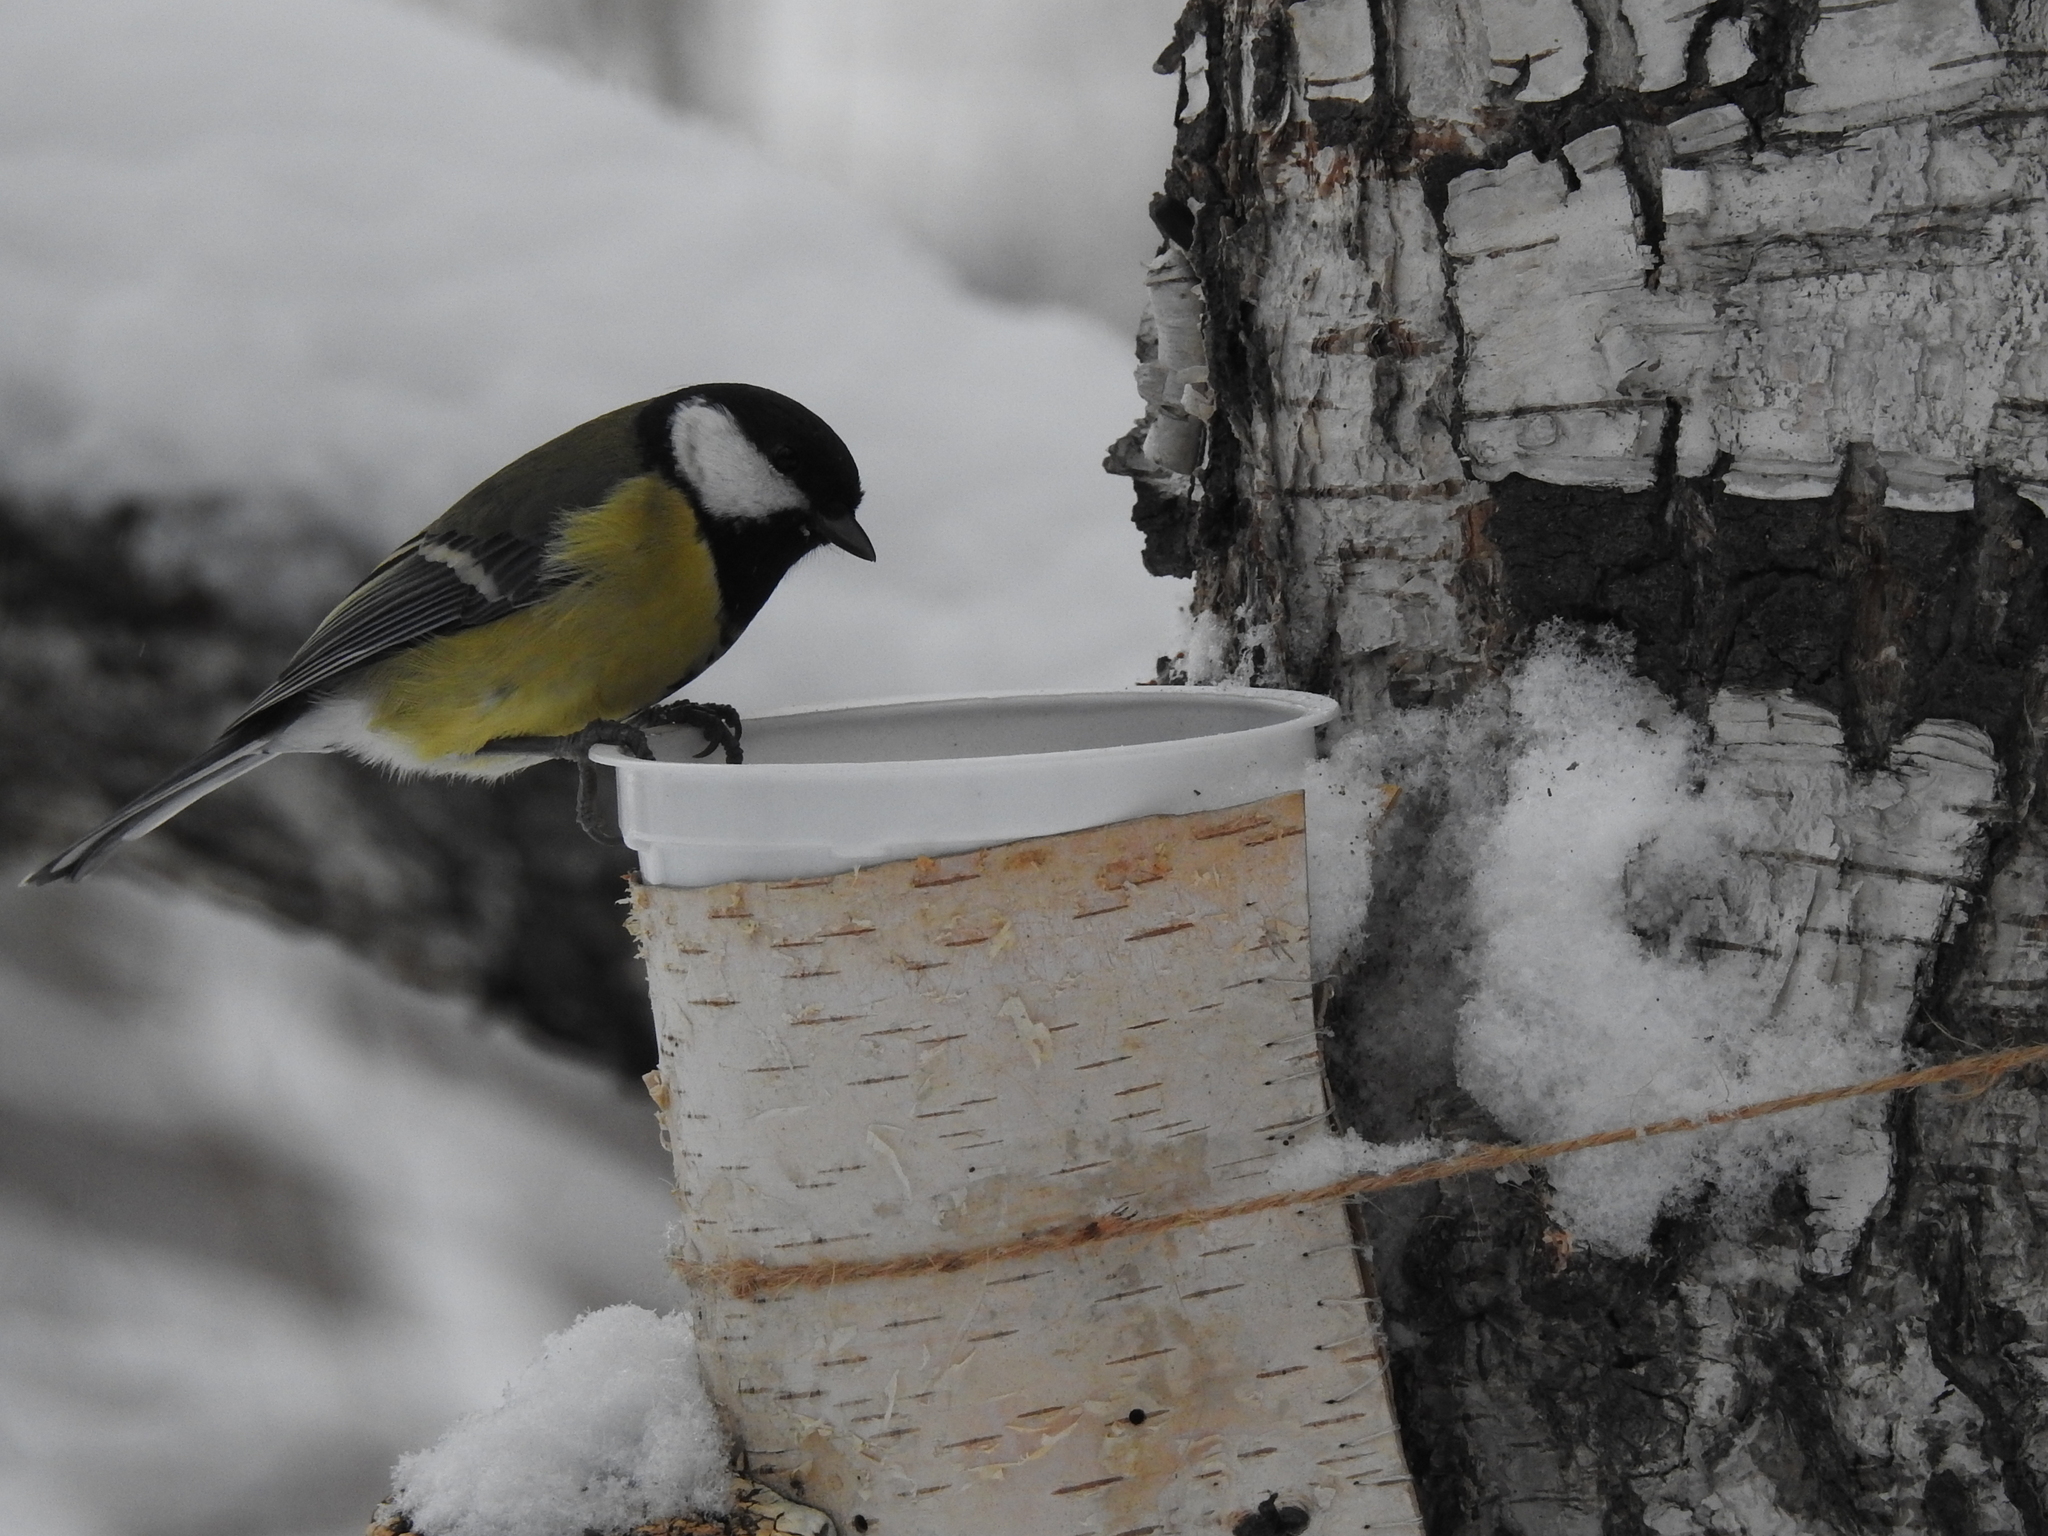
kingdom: Animalia
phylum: Chordata
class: Aves
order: Passeriformes
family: Paridae
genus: Parus
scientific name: Parus major
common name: Great tit
